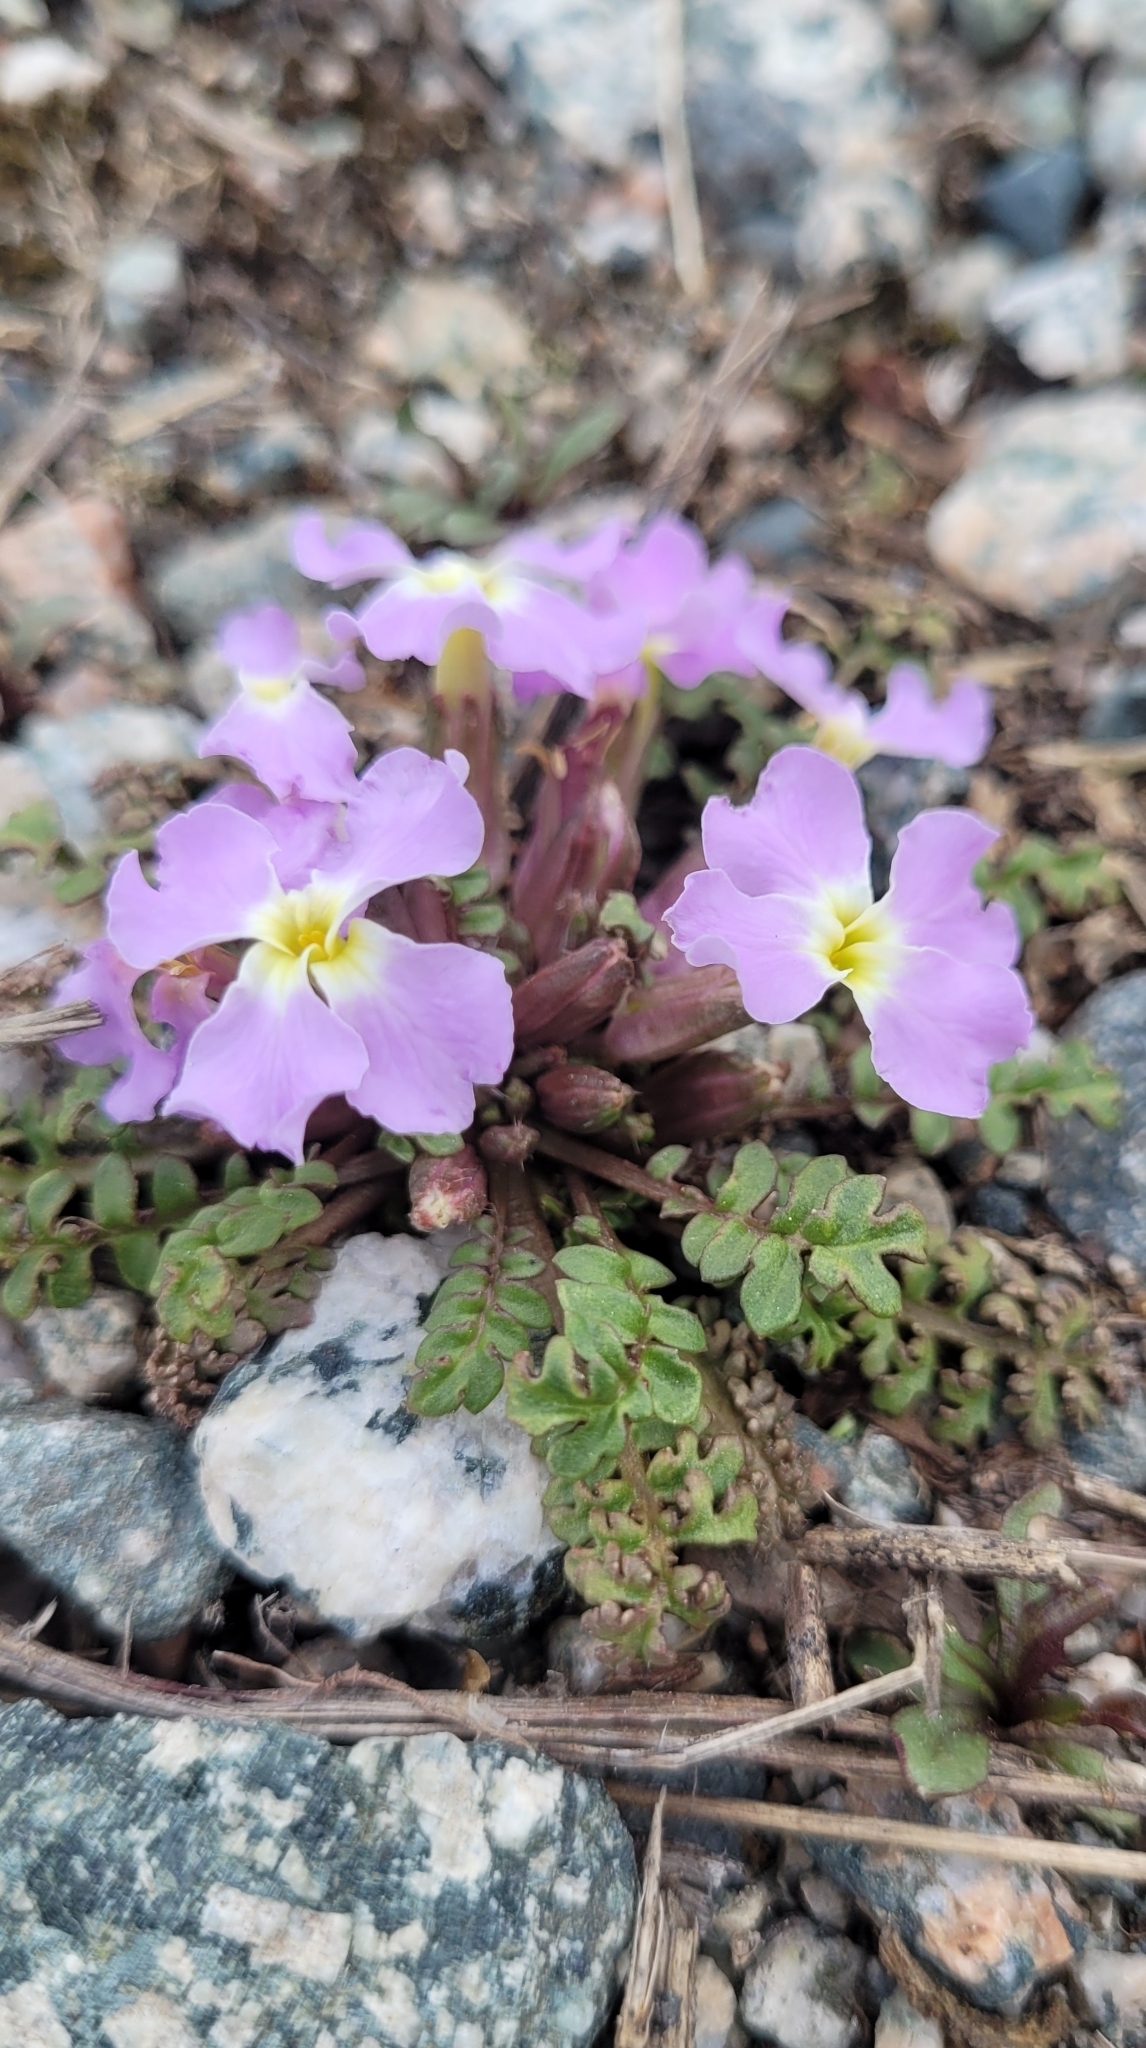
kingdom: Plantae
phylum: Tracheophyta
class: Magnoliopsida
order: Brassicales
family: Brassicaceae
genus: Chorispora
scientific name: Chorispora bungeana
